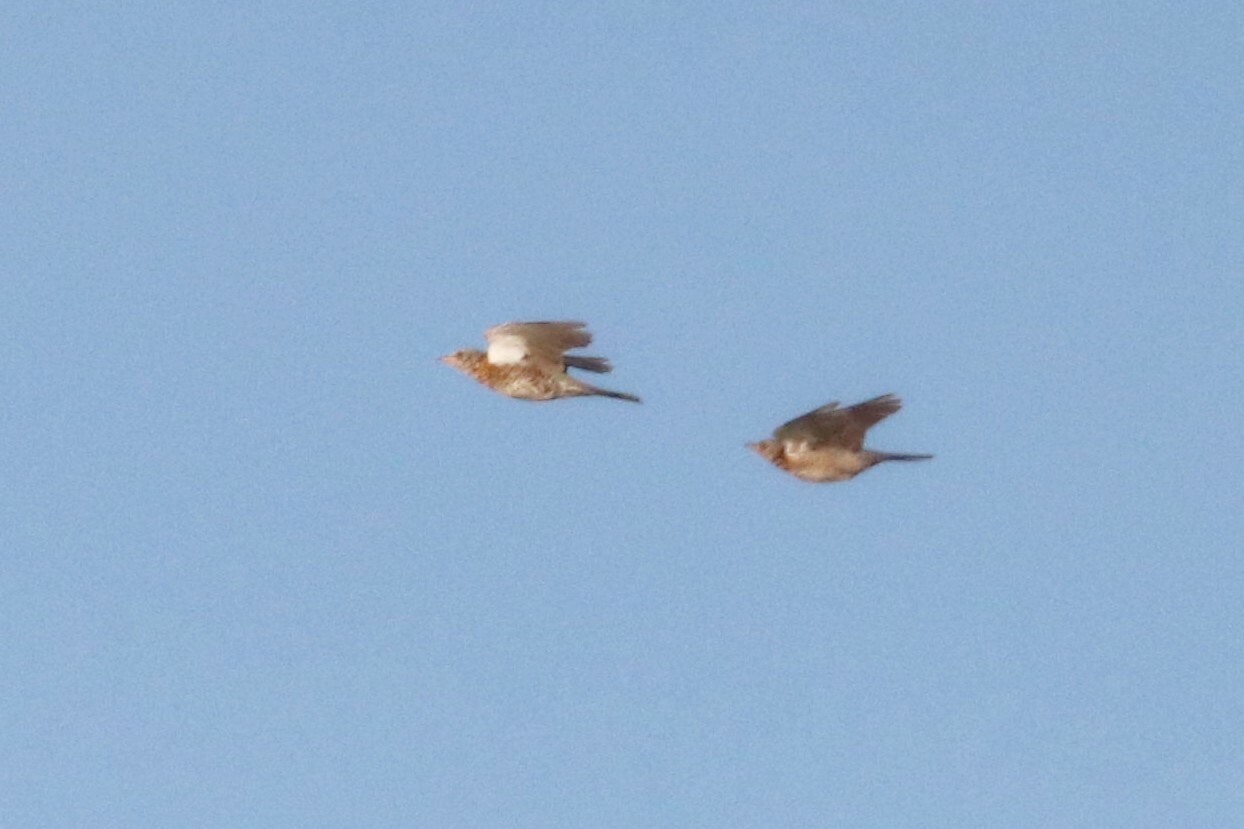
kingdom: Animalia
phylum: Chordata
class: Aves
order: Passeriformes
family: Turdidae
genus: Turdus
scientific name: Turdus pilaris
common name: Fieldfare
